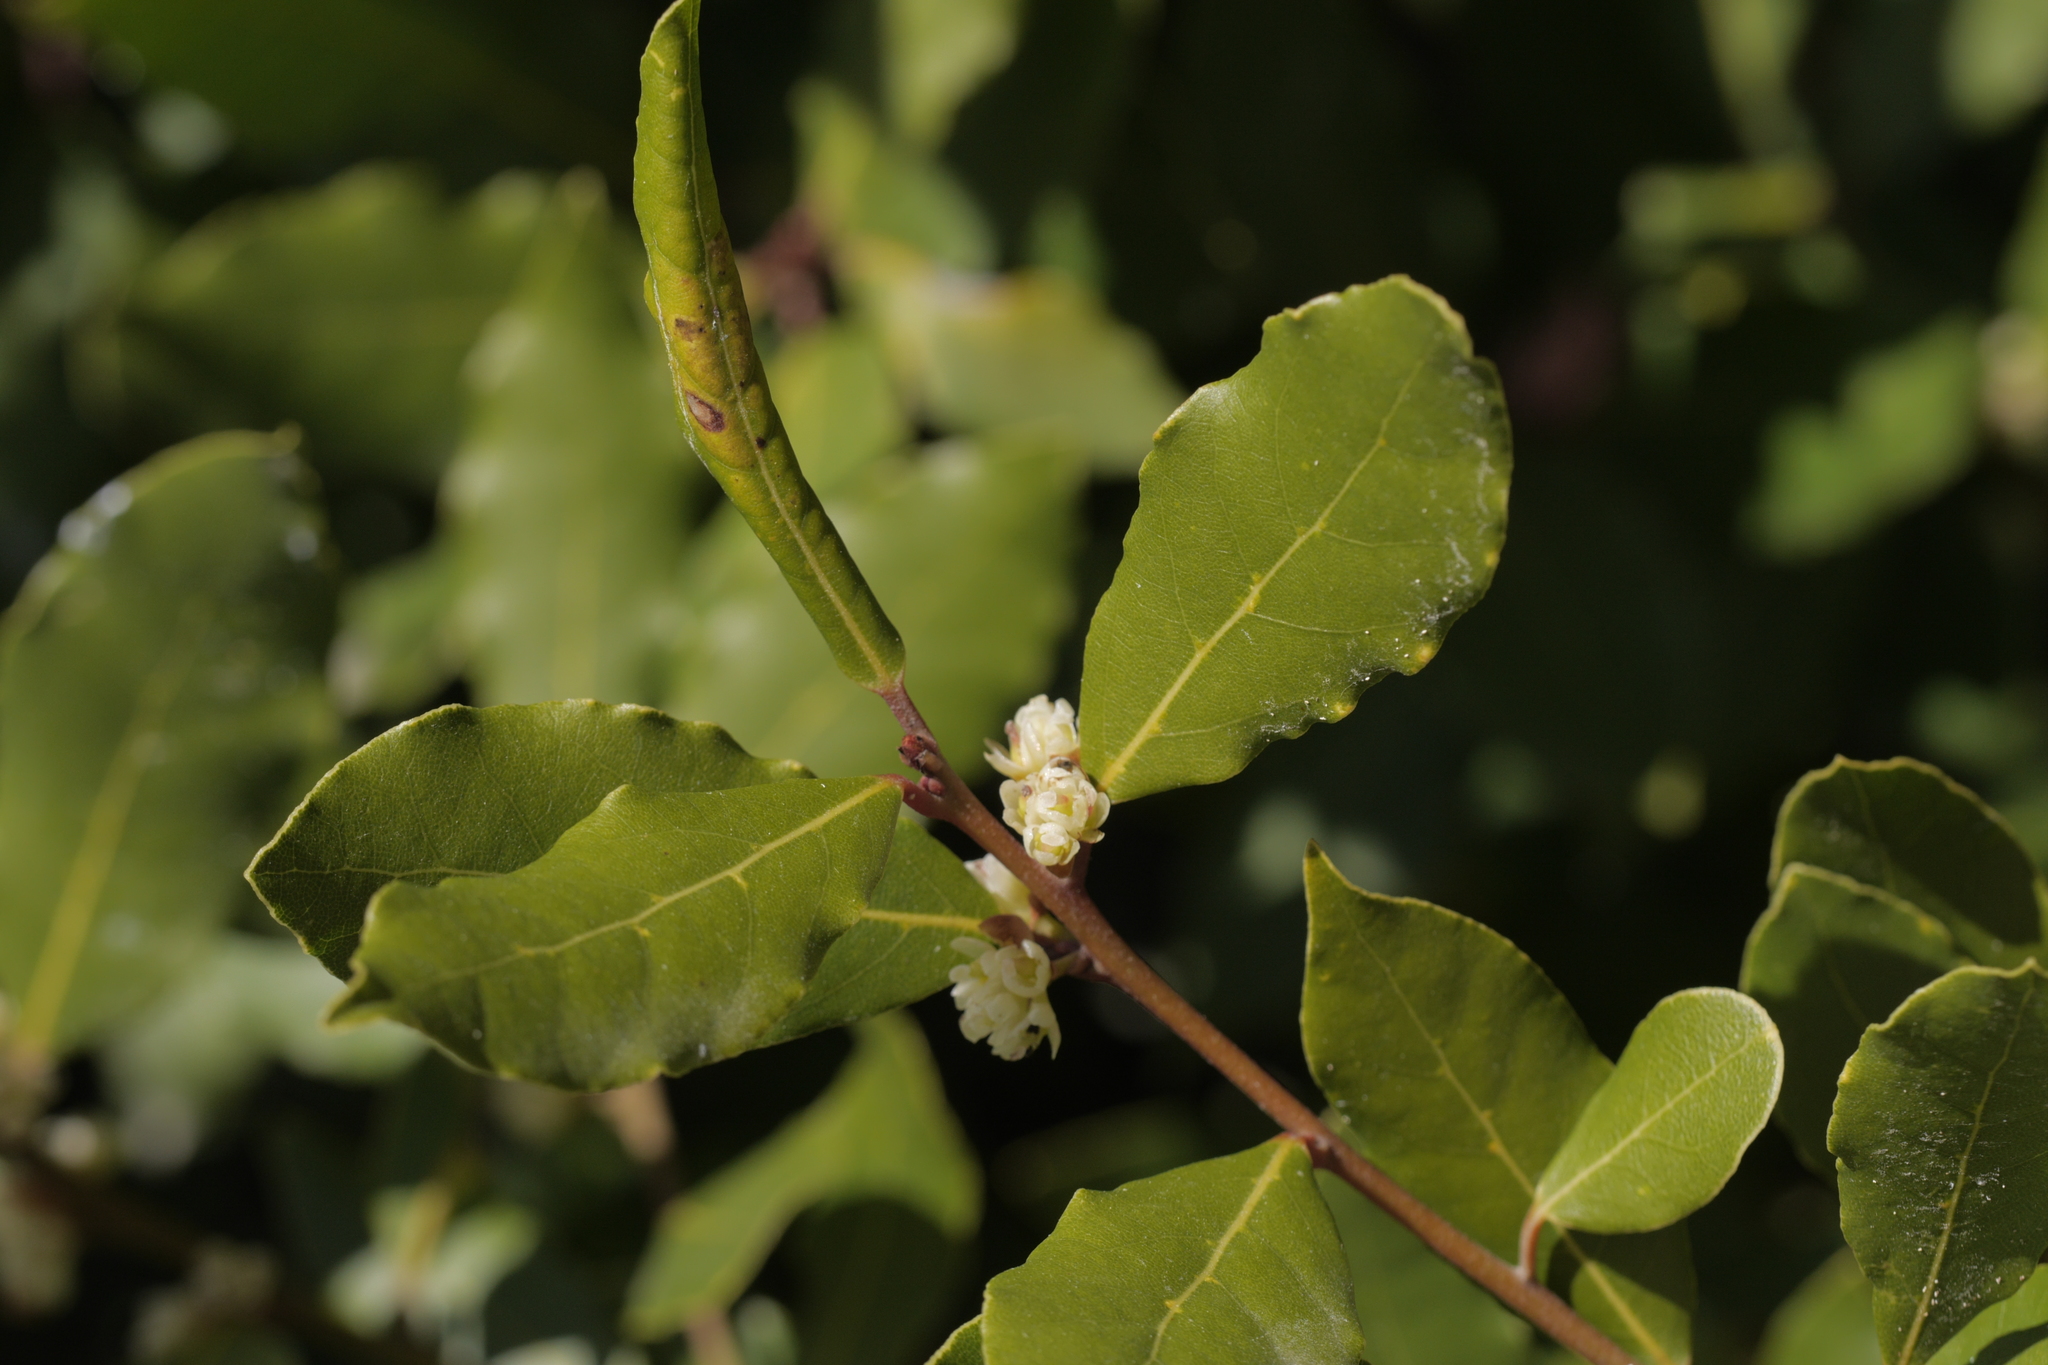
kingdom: Plantae
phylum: Tracheophyta
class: Magnoliopsida
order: Laurales
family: Lauraceae
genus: Laurus
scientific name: Laurus nobilis
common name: Bay
